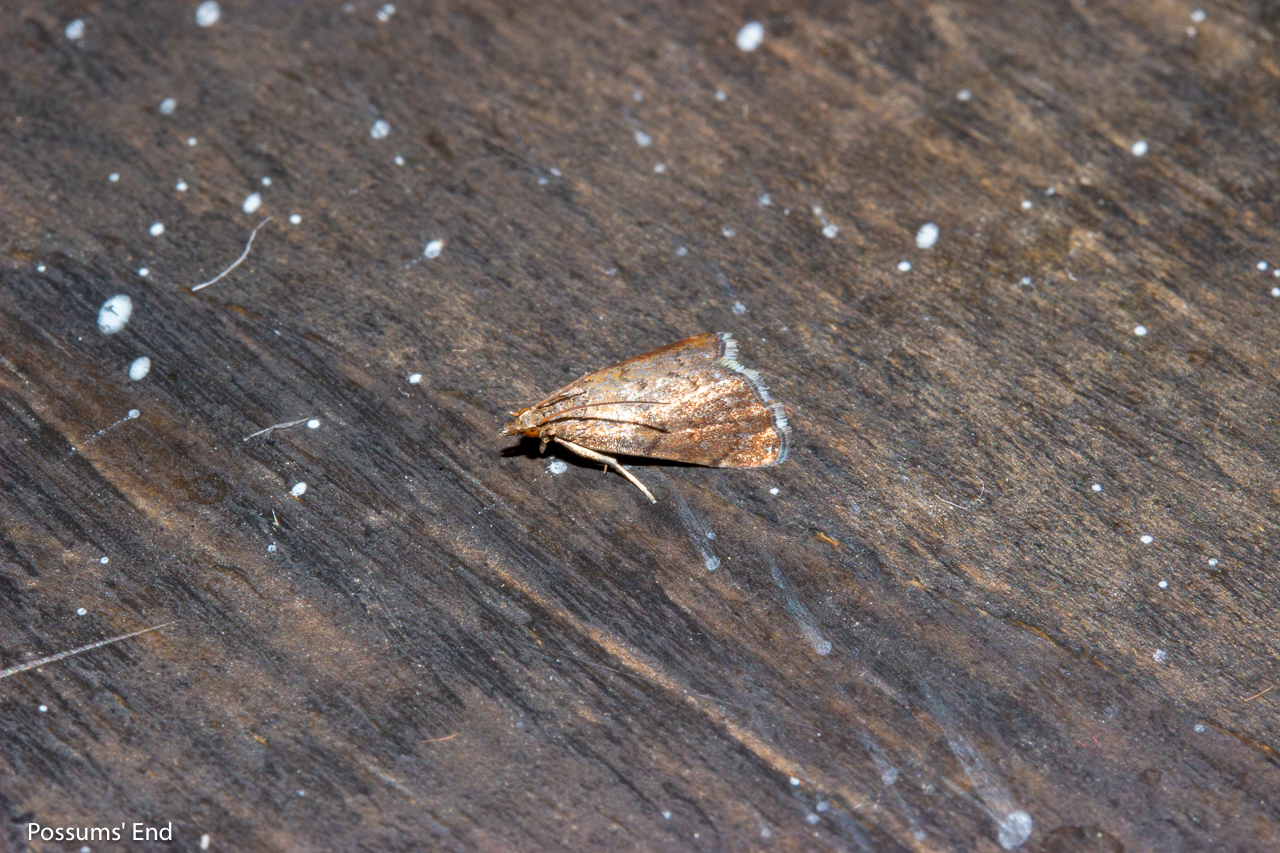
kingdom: Animalia
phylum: Arthropoda
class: Insecta
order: Lepidoptera
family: Crambidae
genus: Glaucocharis
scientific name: Glaucocharis epiphaea
